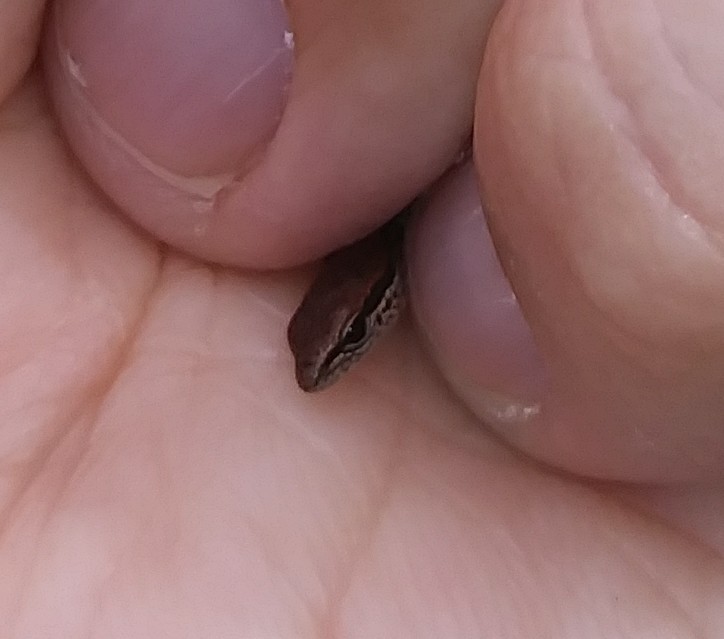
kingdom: Animalia
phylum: Chordata
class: Squamata
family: Scincidae
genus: Scincella
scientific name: Scincella lateralis
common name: Ground skink
